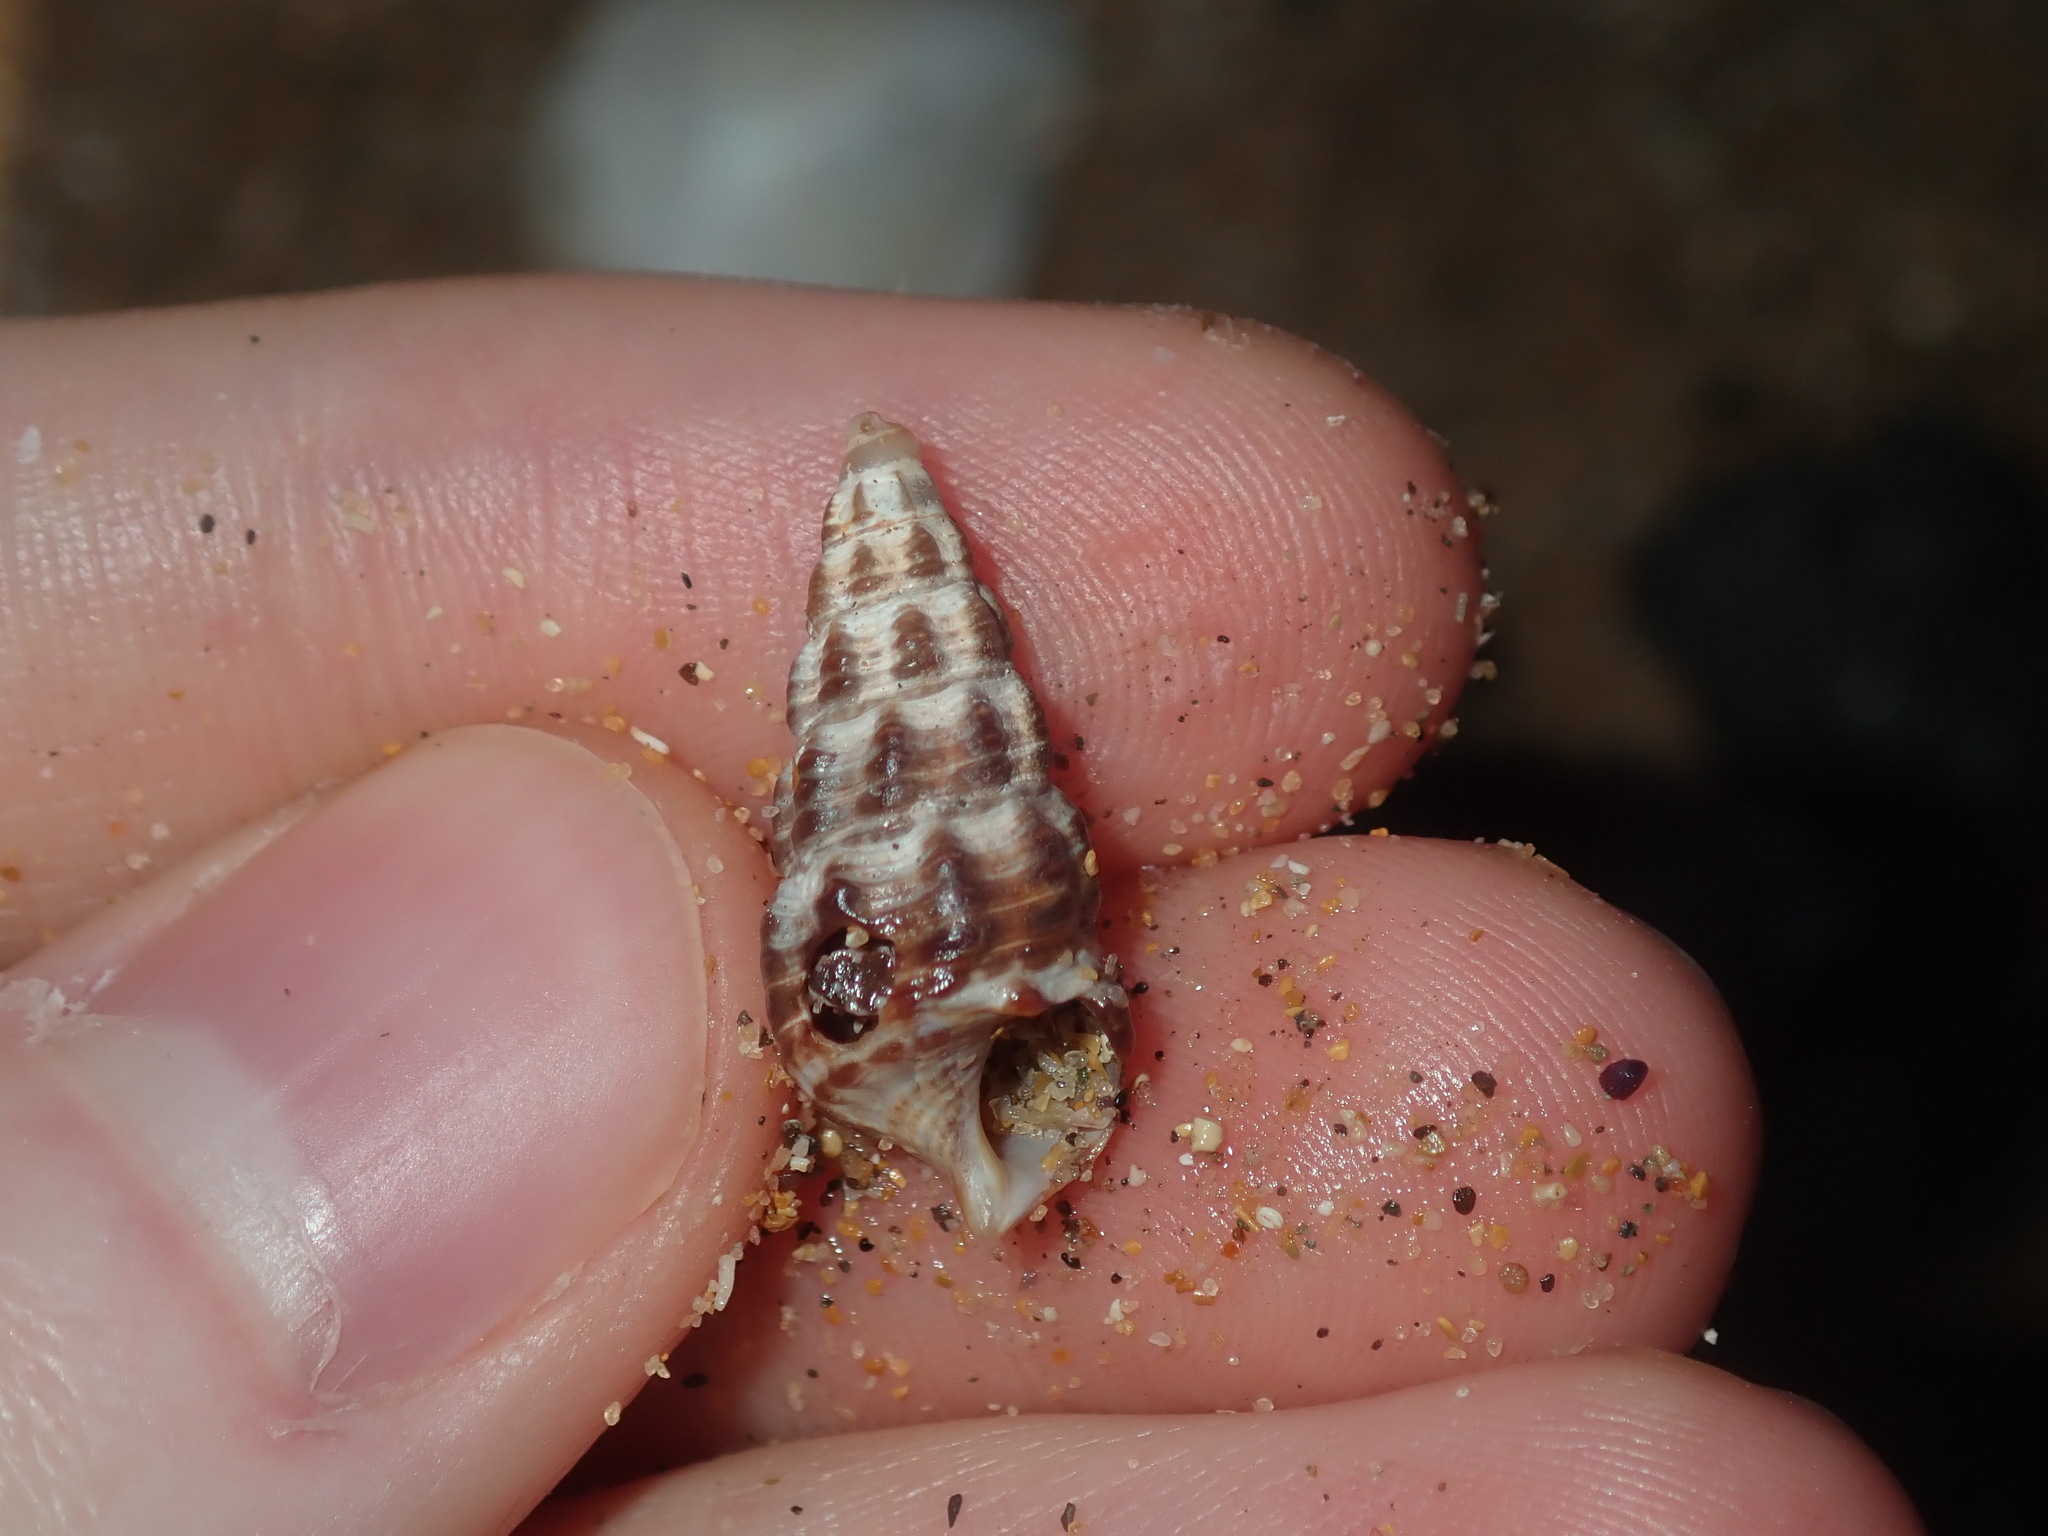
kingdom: Animalia
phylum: Mollusca
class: Gastropoda
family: Batillariidae
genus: Batillaria
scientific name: Batillaria australis
